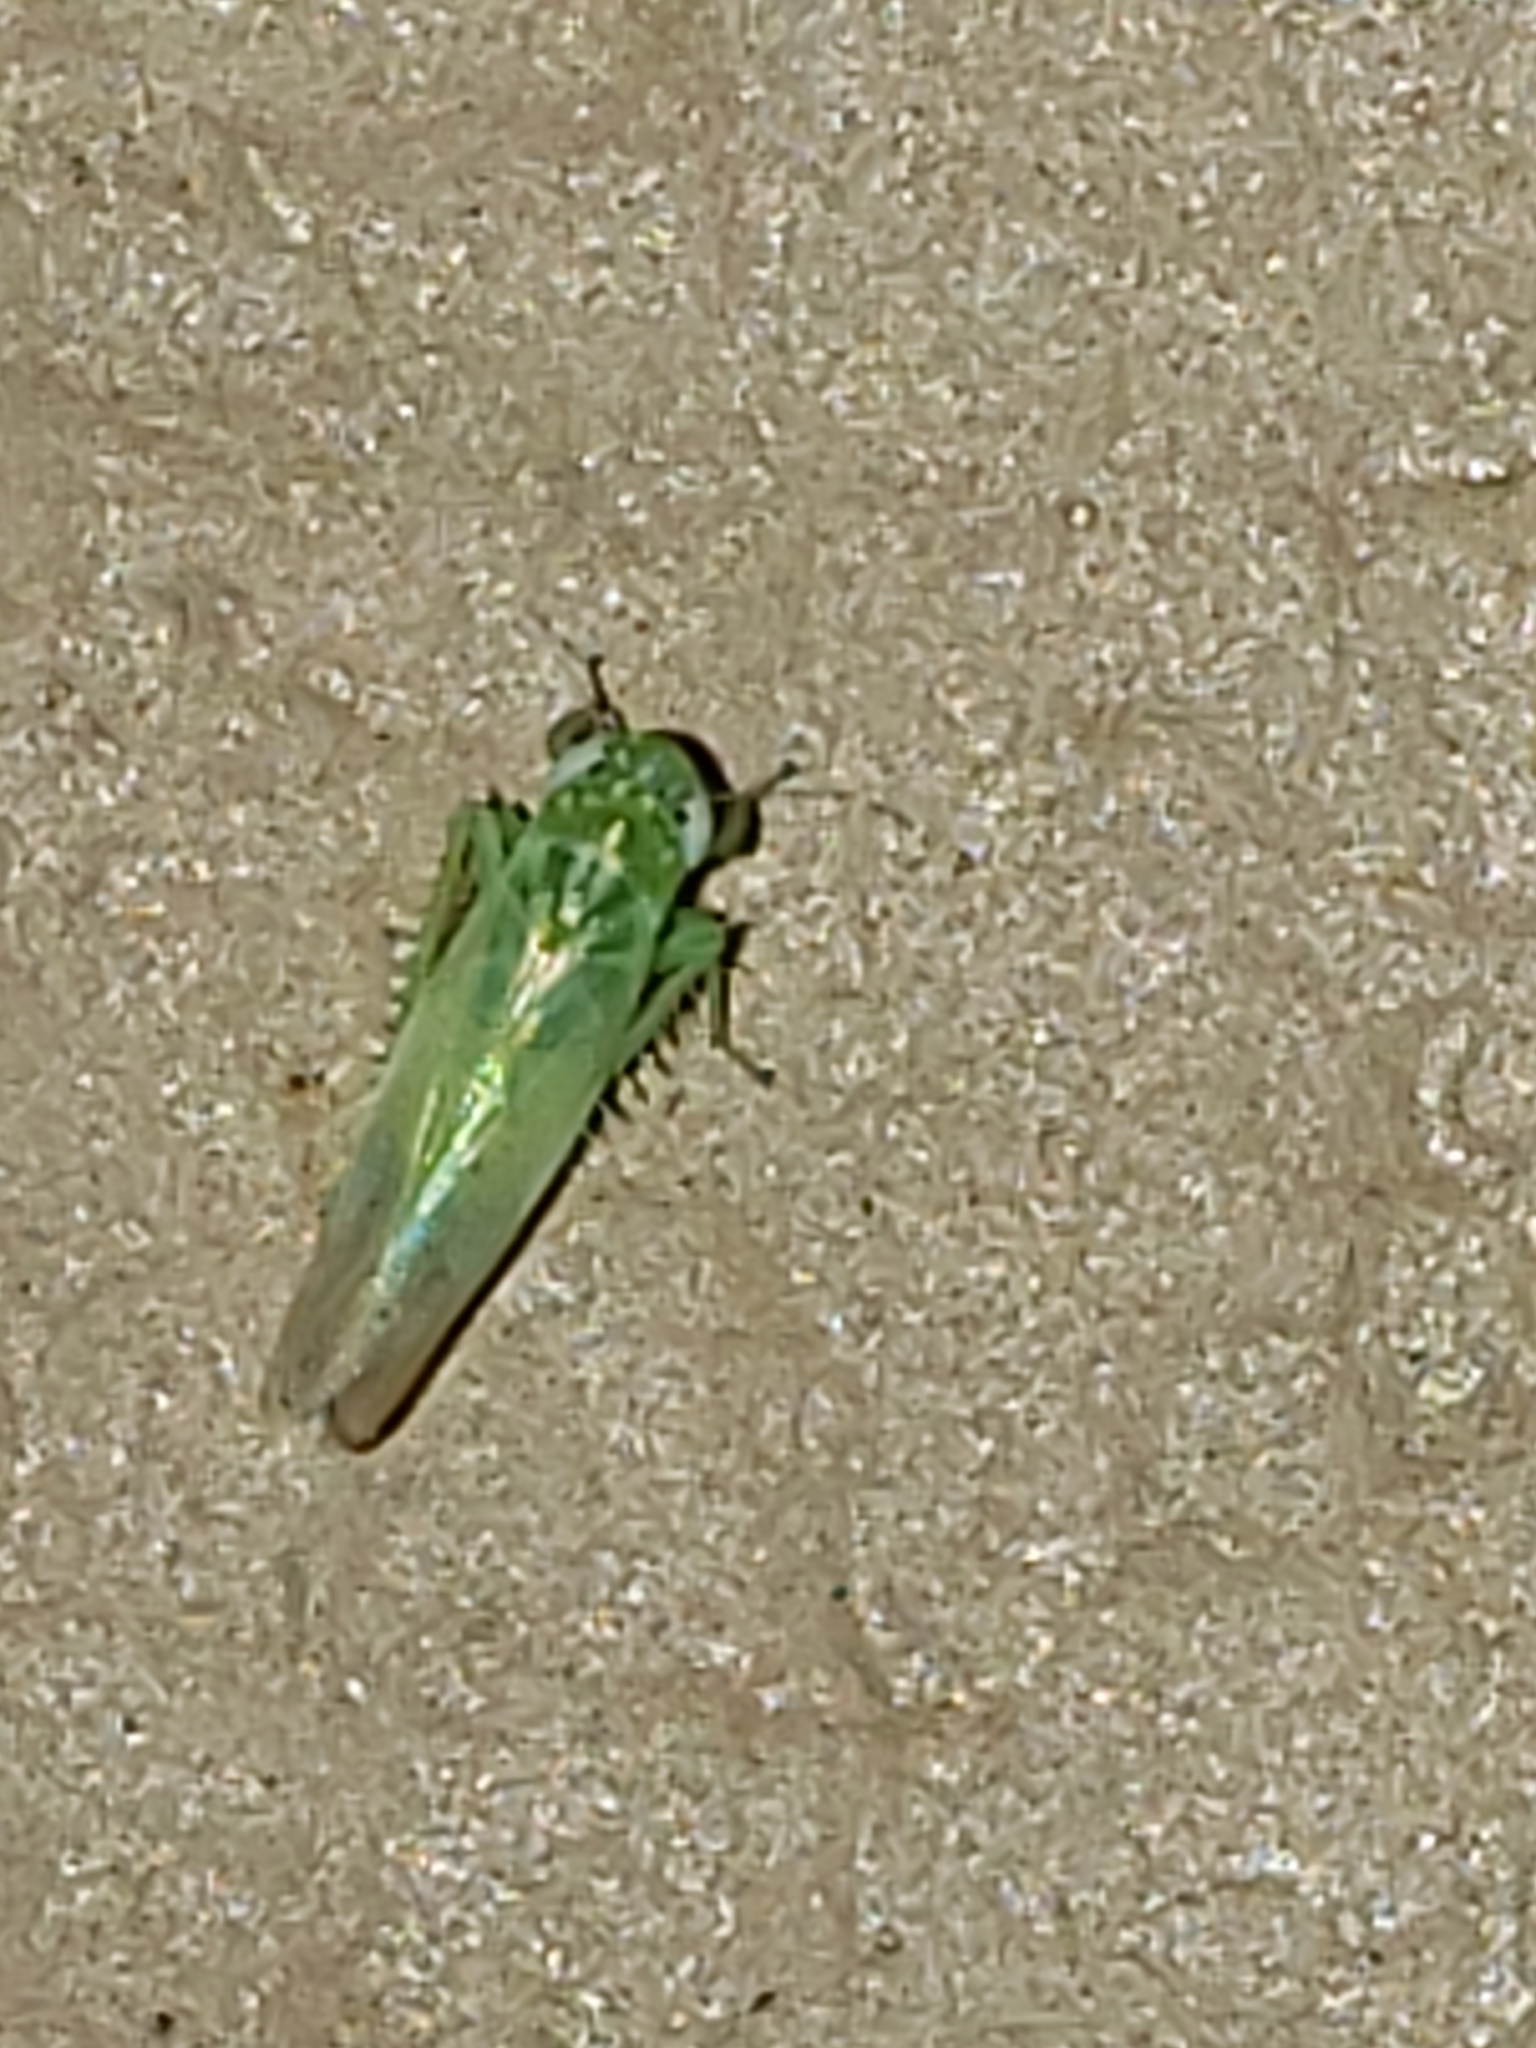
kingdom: Animalia
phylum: Arthropoda
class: Insecta
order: Hemiptera
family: Cicadellidae
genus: Empoasca
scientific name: Empoasca fabae
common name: Potato leafhopper
